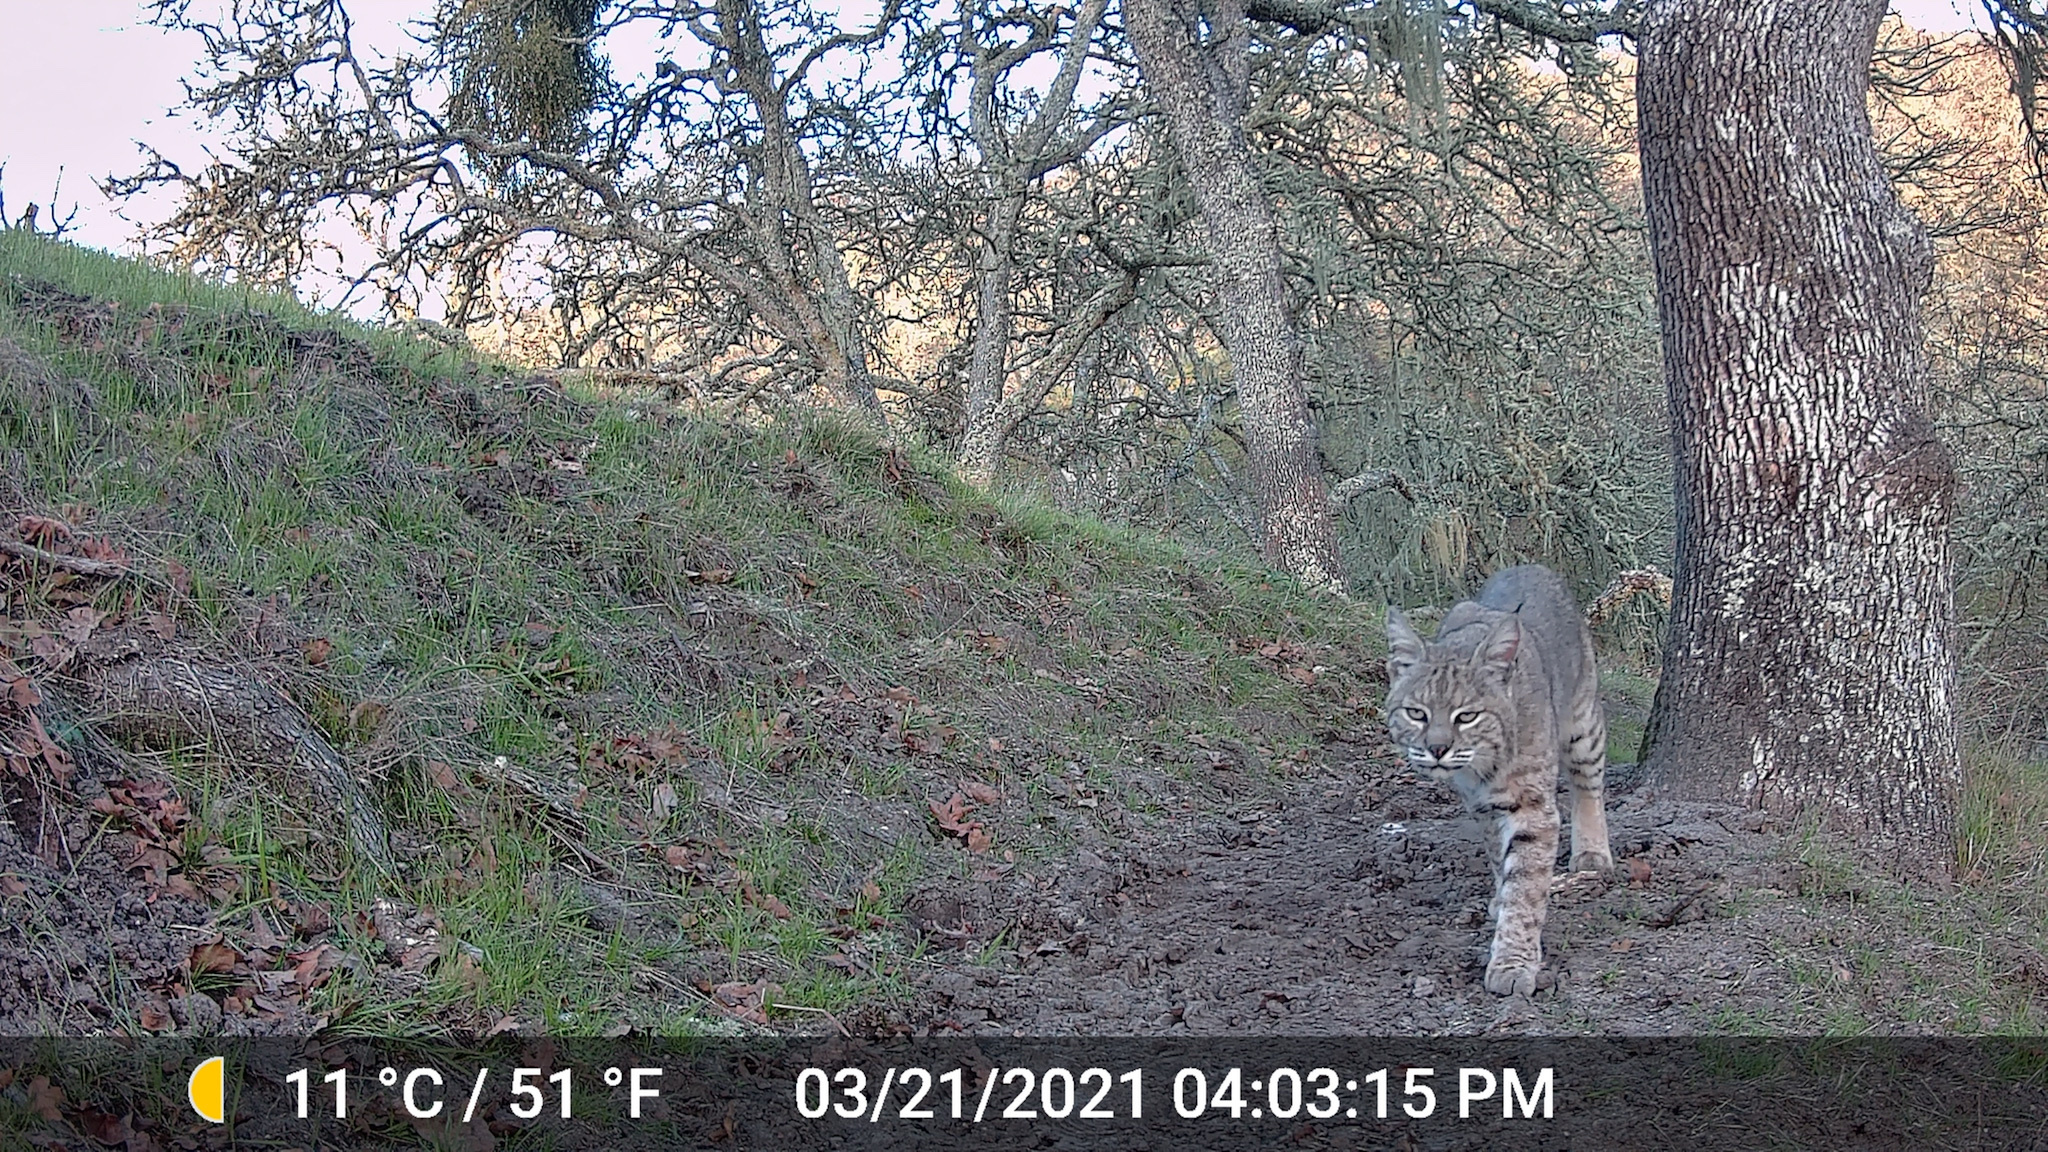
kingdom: Animalia
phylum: Chordata
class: Mammalia
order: Carnivora
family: Felidae
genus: Lynx
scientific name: Lynx rufus
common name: Bobcat
